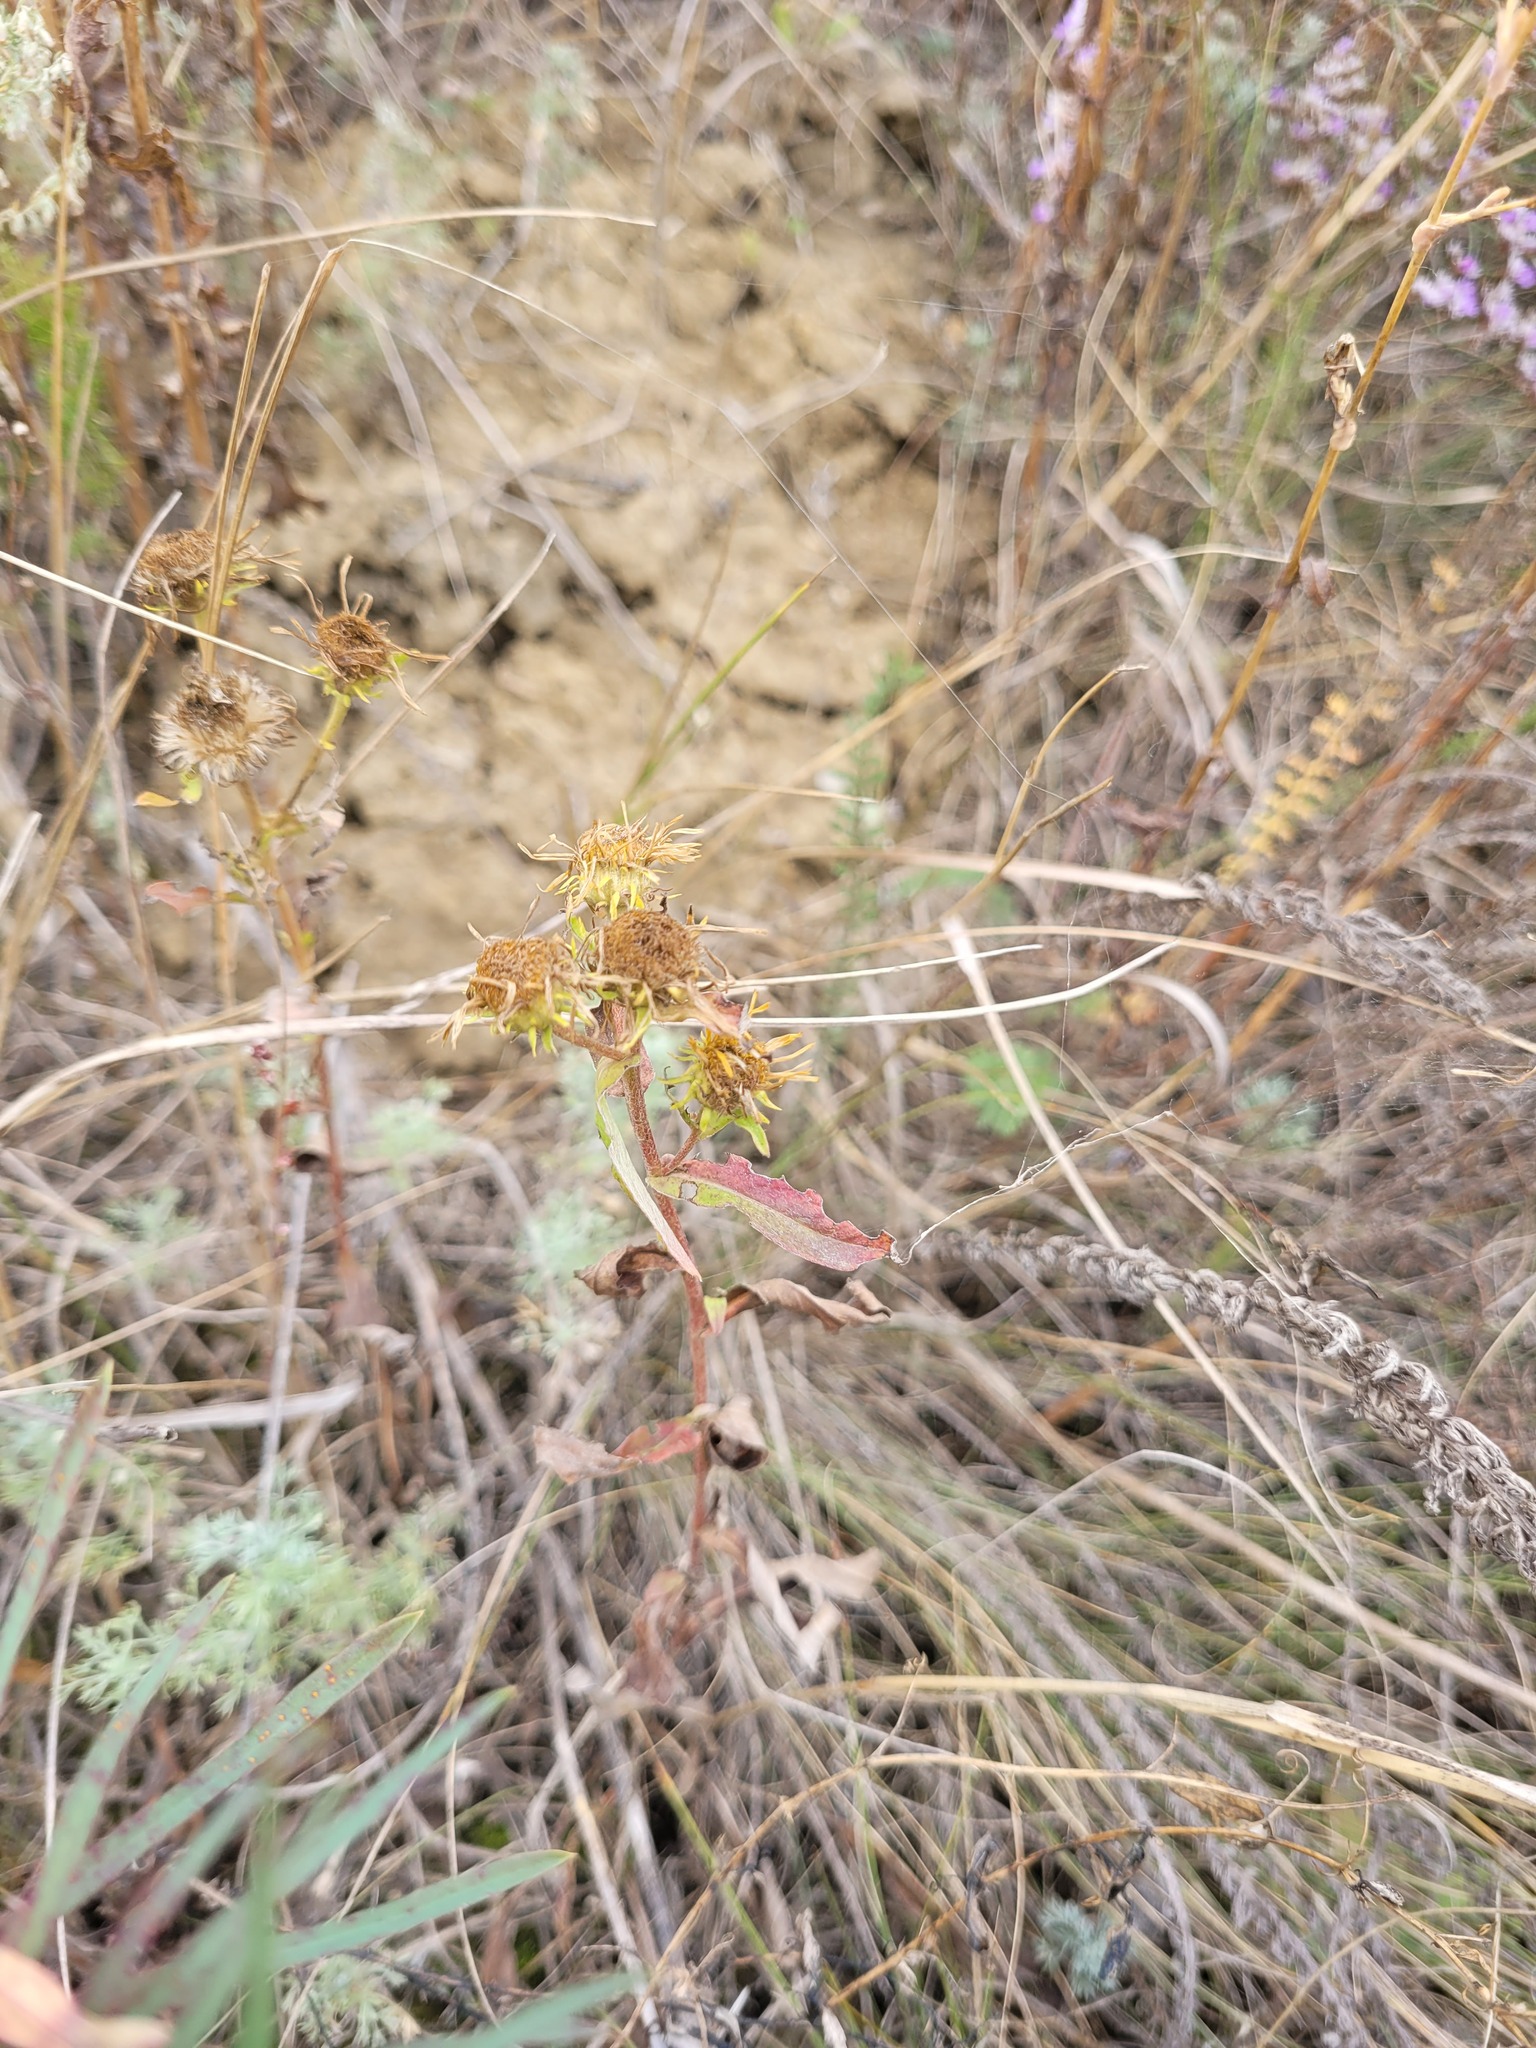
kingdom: Plantae
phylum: Tracheophyta
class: Magnoliopsida
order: Asterales
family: Asteraceae
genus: Pentanema
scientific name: Pentanema britannicum
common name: British elecampane
